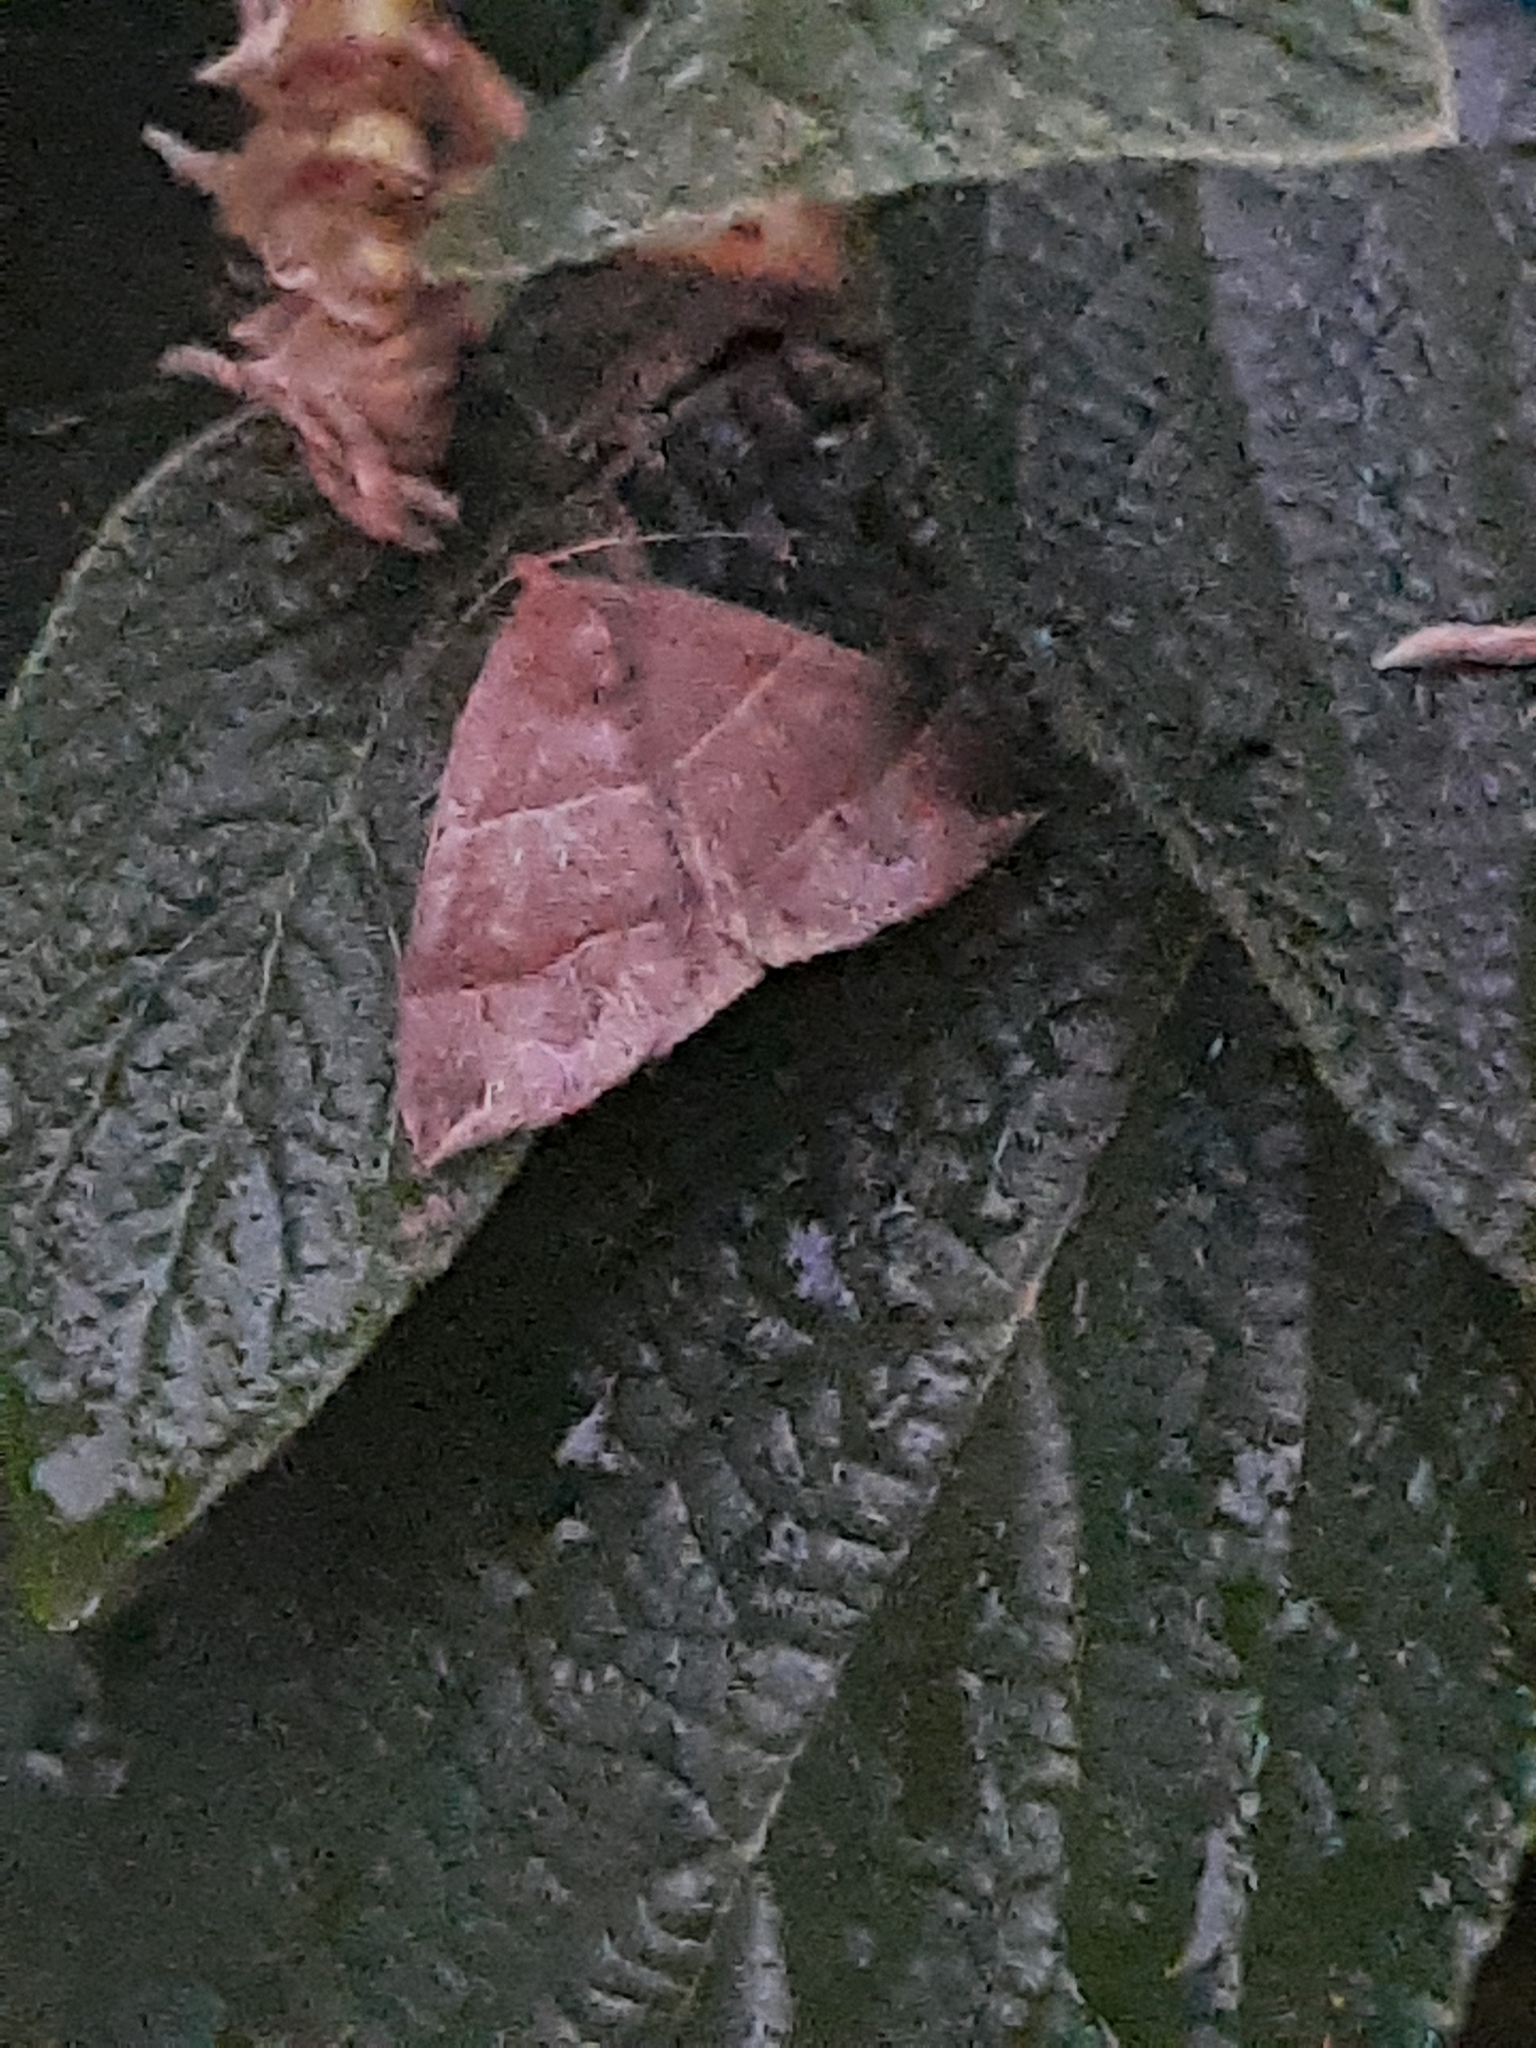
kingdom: Animalia
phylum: Arthropoda
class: Insecta
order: Lepidoptera
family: Erebidae
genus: Parallelia
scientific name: Parallelia bistriaris
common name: Maple looper moth
